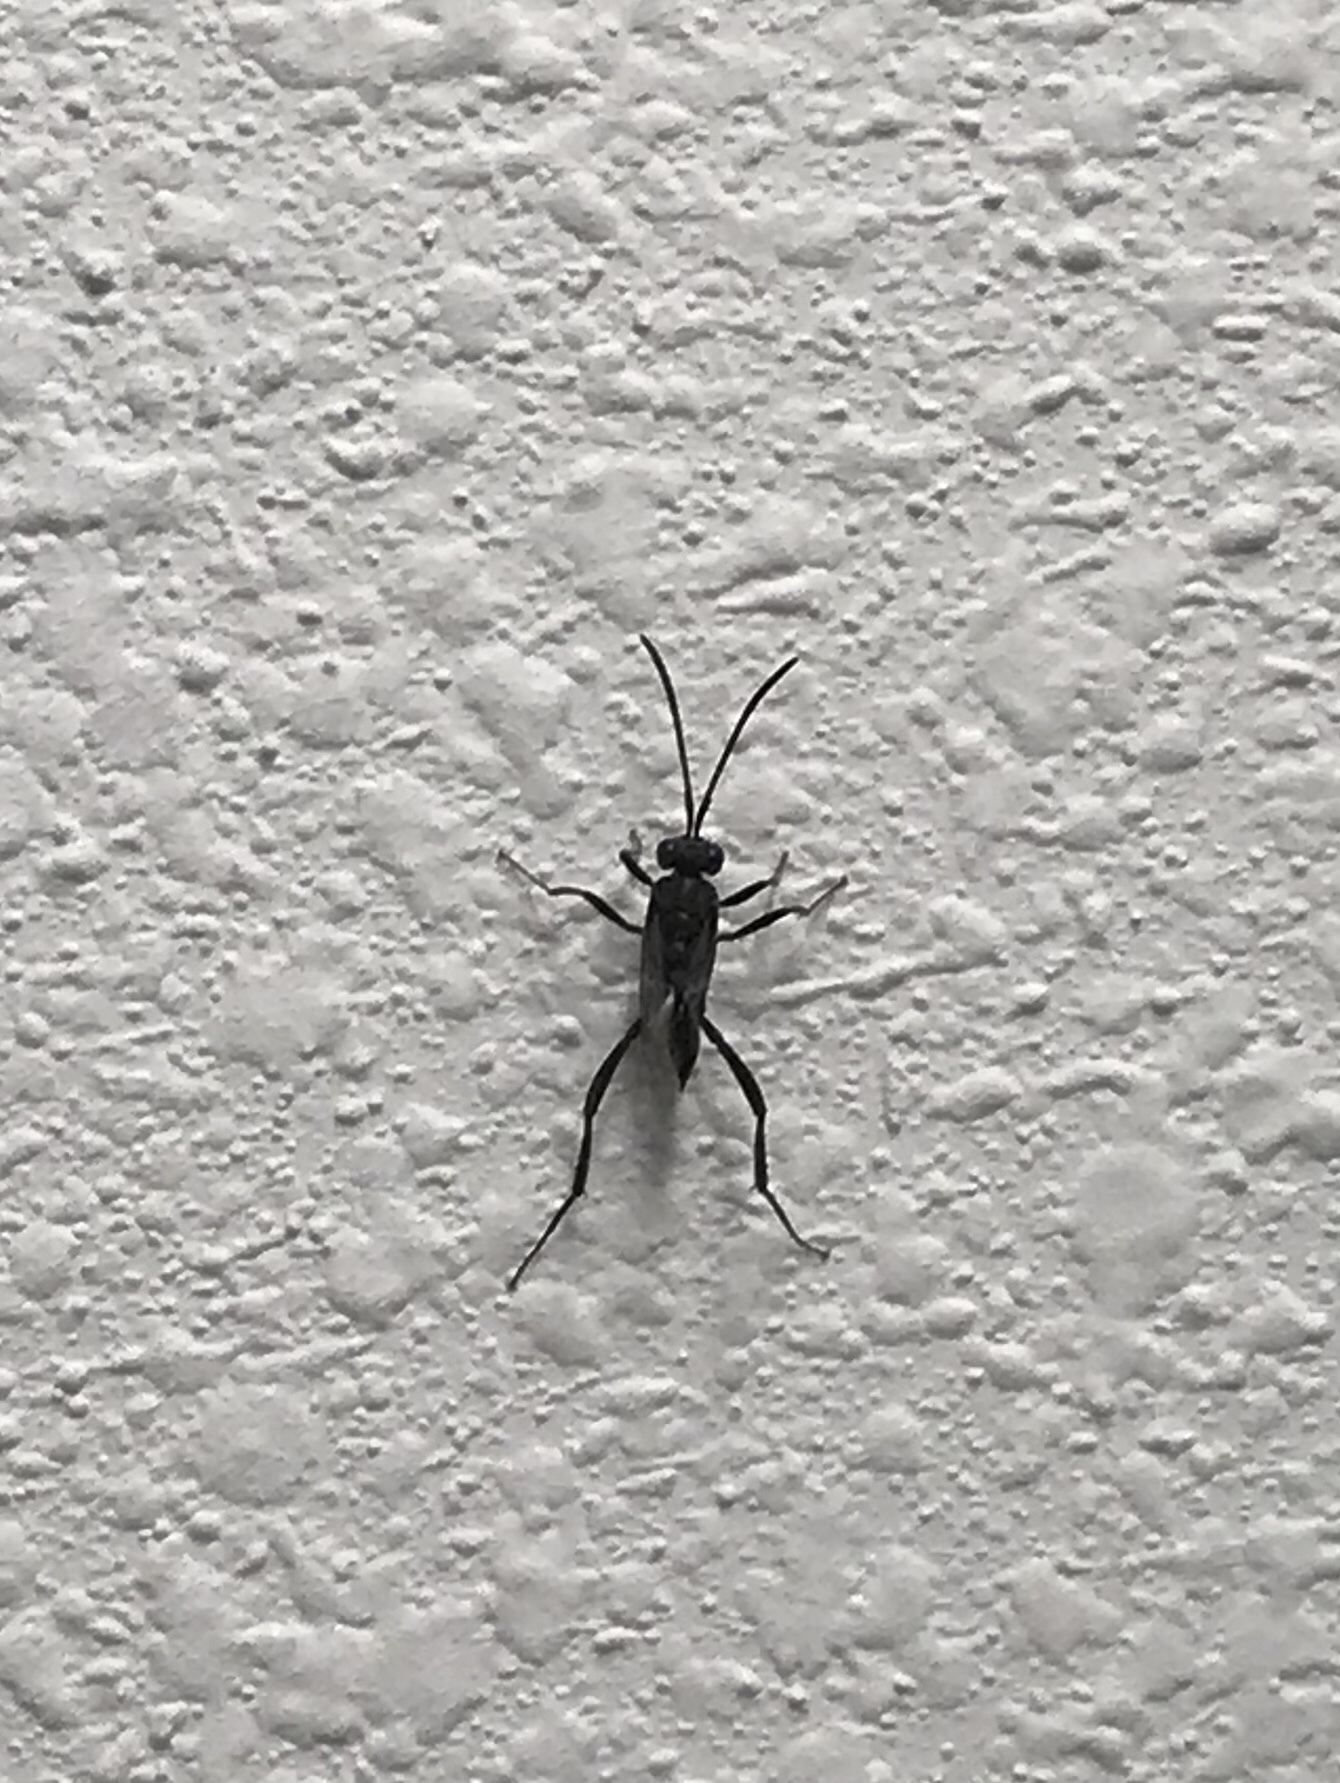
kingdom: Animalia
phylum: Arthropoda
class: Insecta
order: Hymenoptera
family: Evaniidae
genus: Evania
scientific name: Evania appendigaster
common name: Ensign wasp
